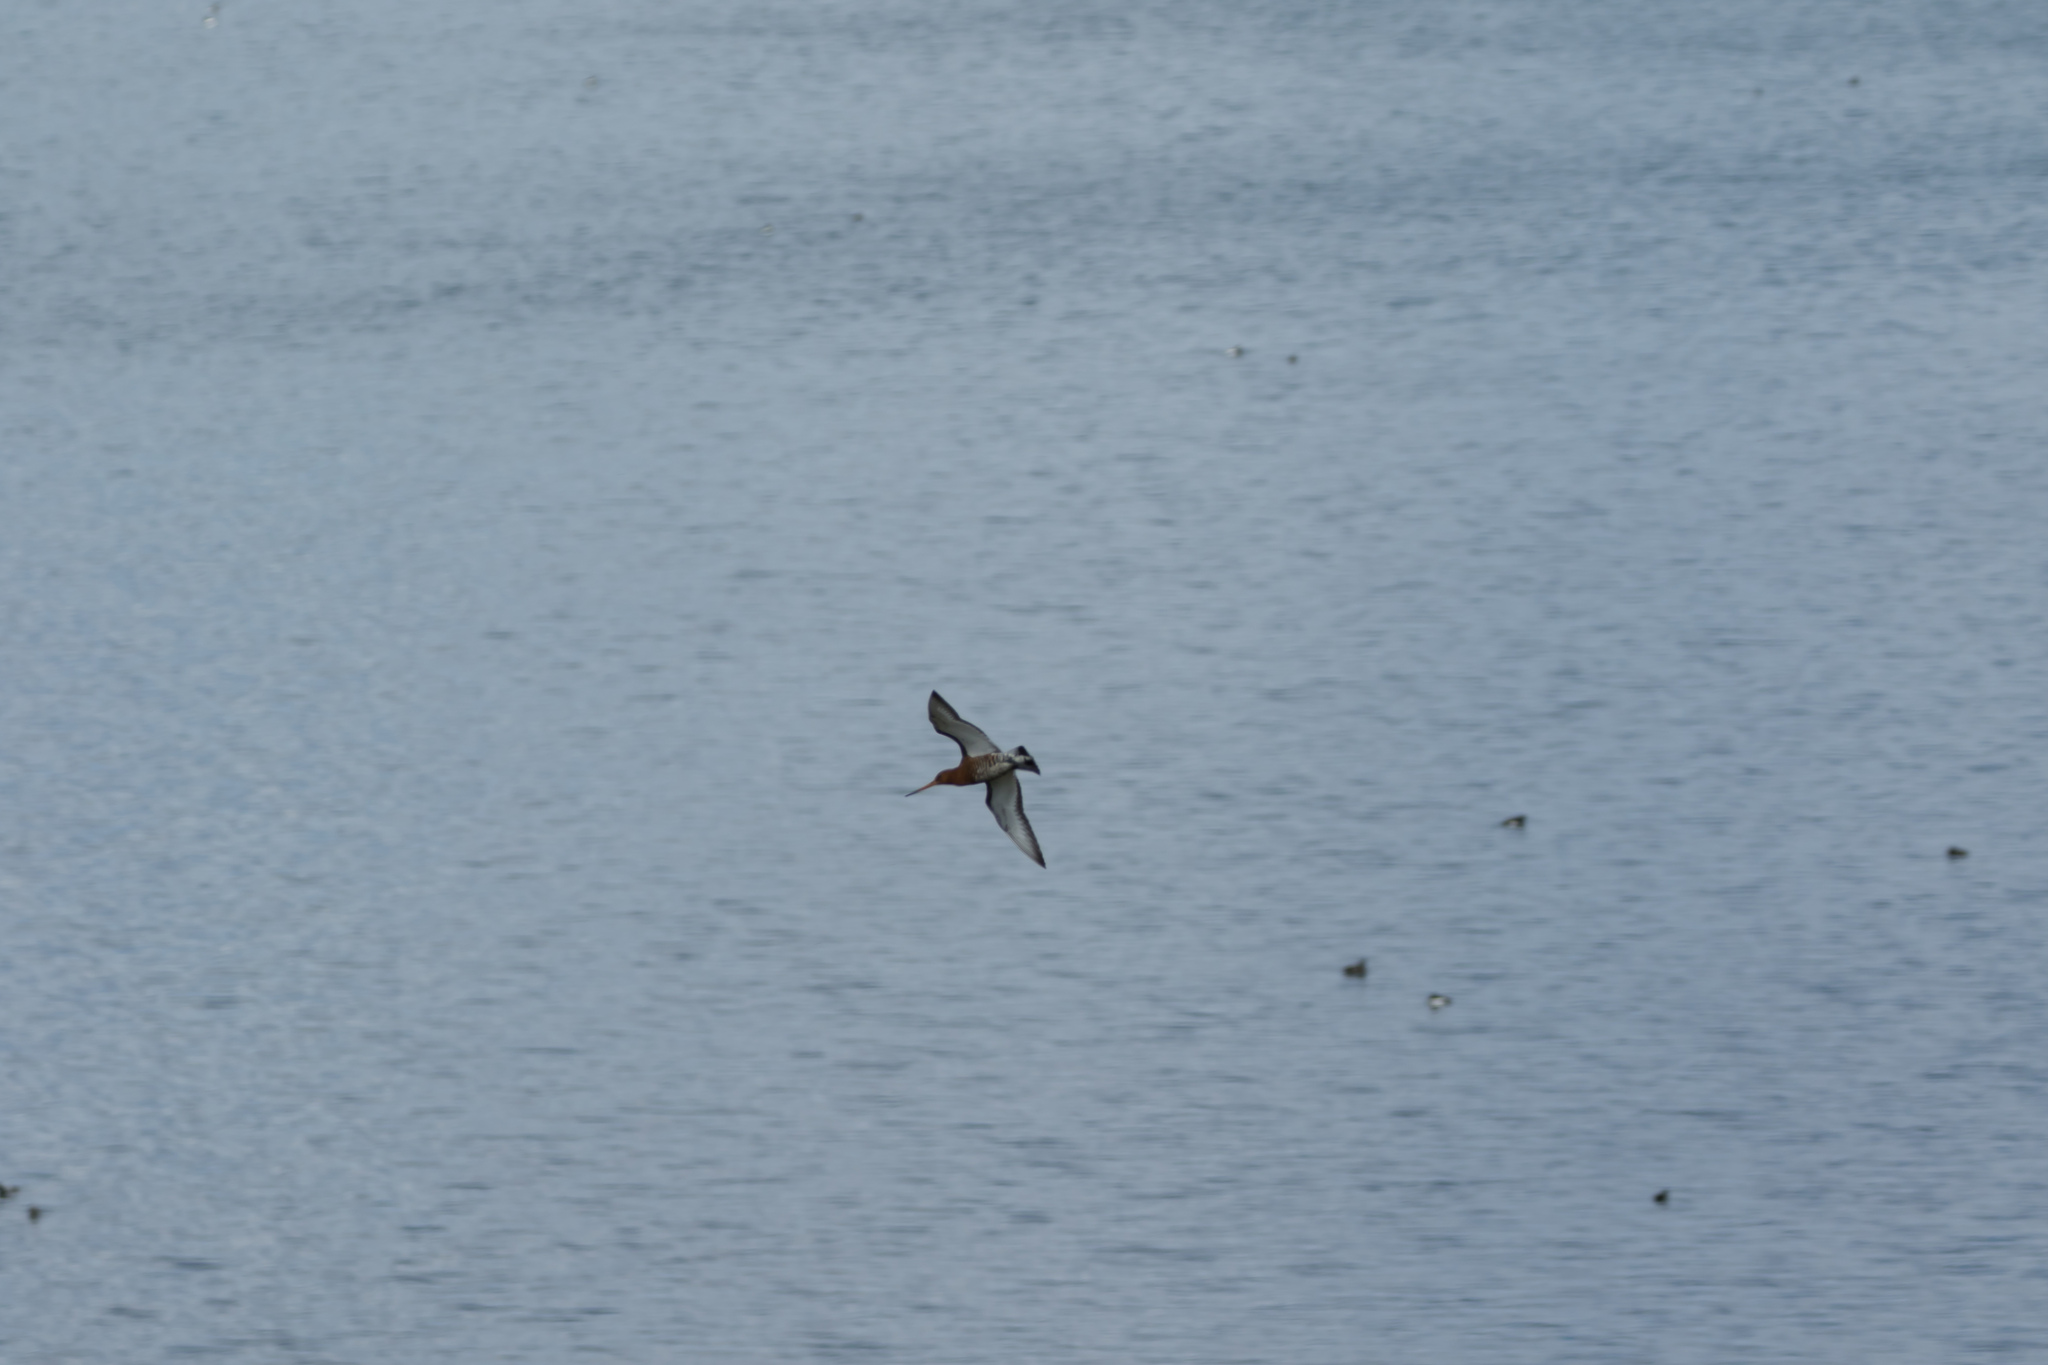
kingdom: Animalia
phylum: Chordata
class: Aves
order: Charadriiformes
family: Scolopacidae
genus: Limosa
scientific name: Limosa limosa
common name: Black-tailed godwit
